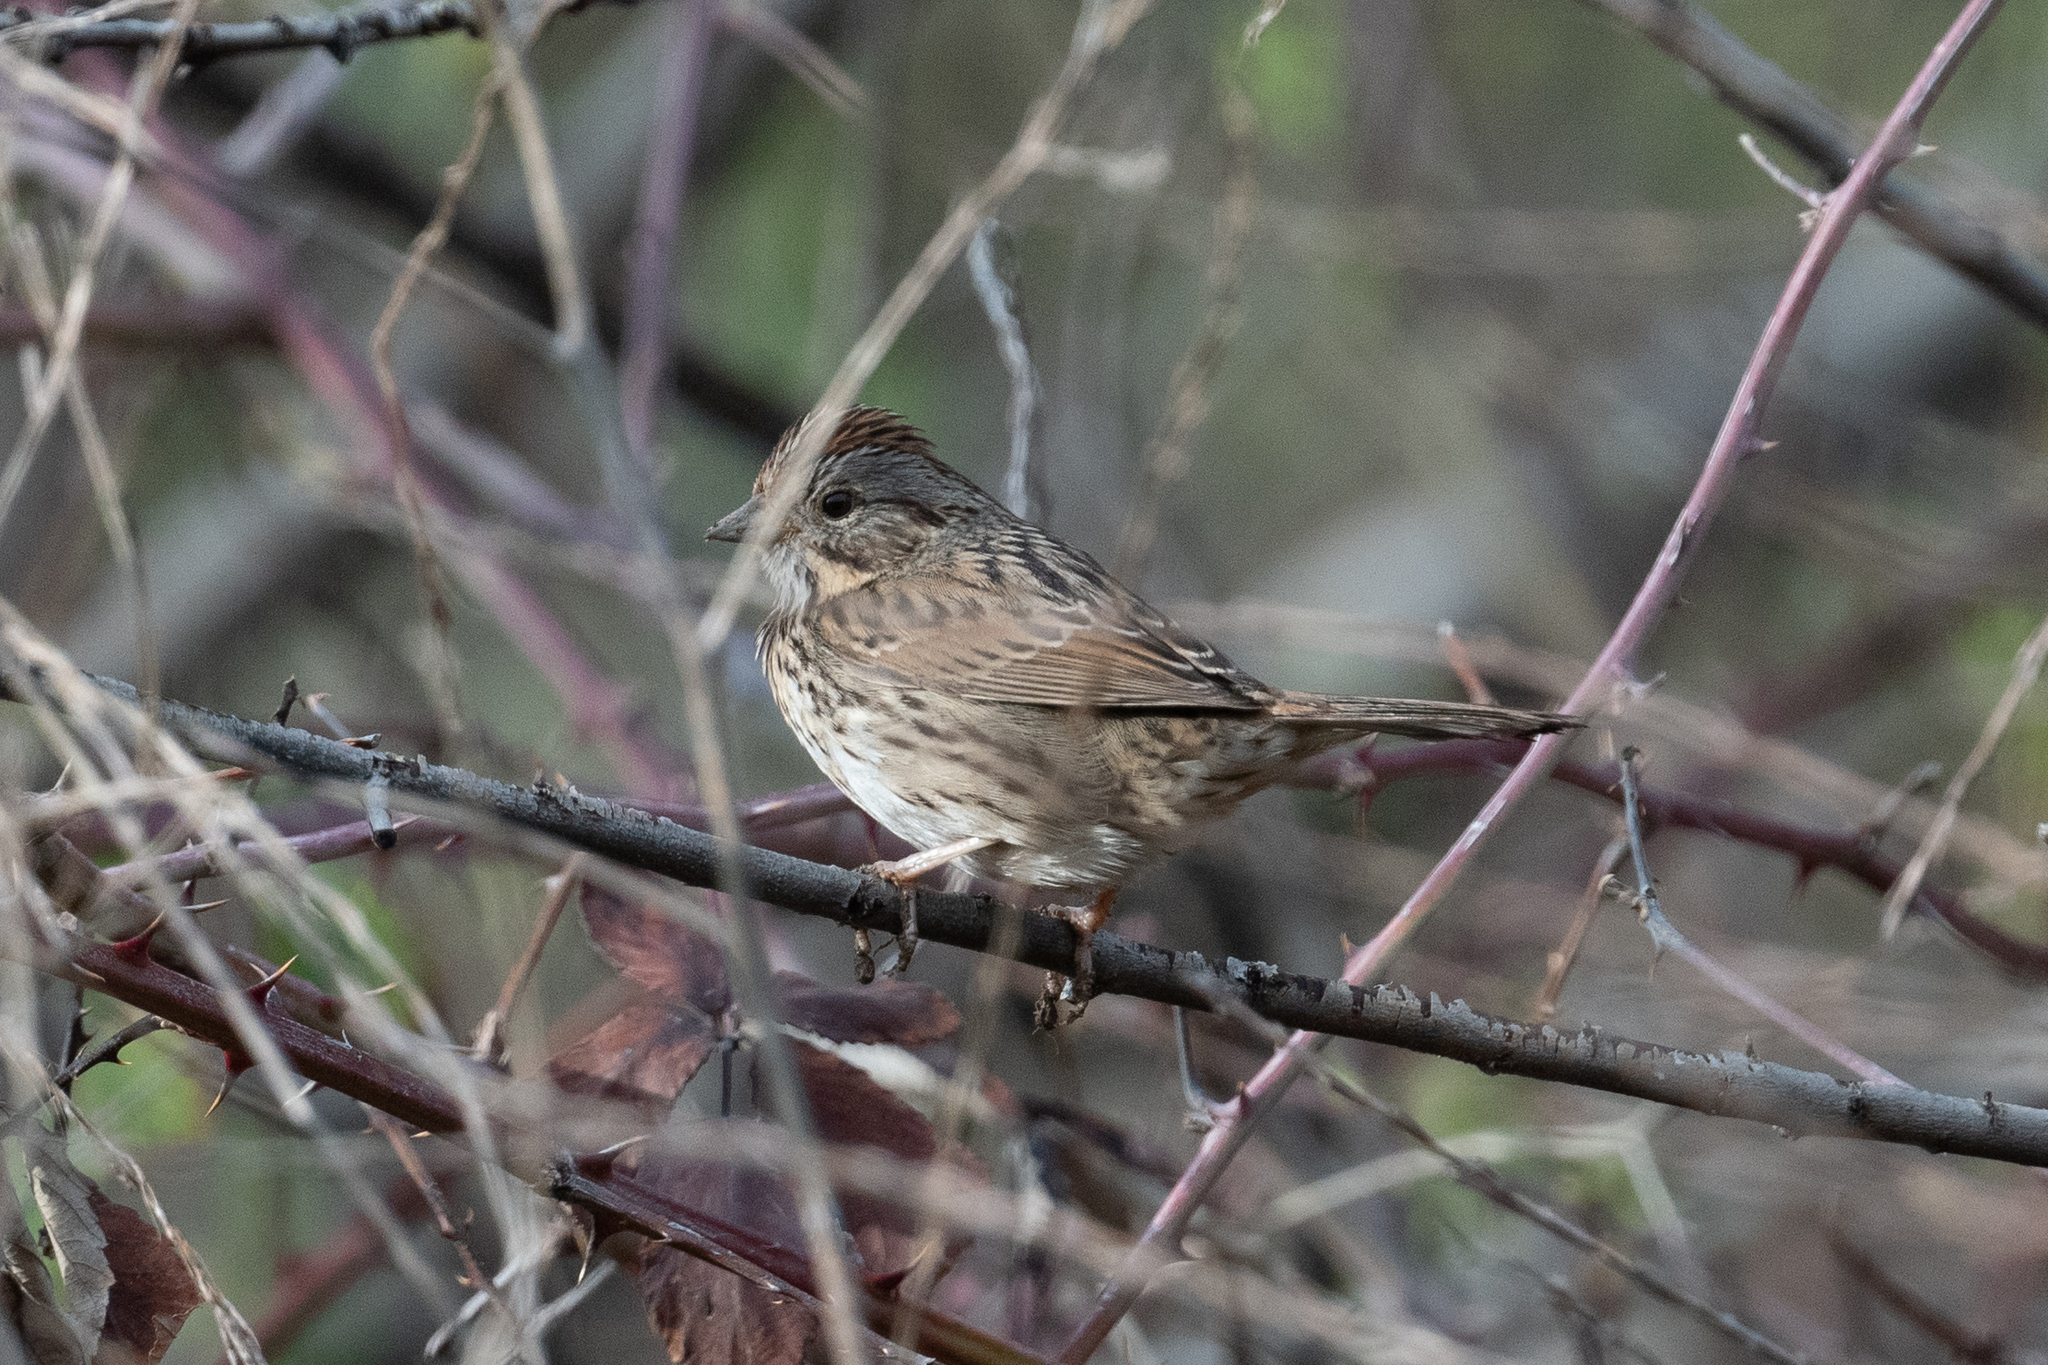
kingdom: Animalia
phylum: Chordata
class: Aves
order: Passeriformes
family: Passerellidae
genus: Melospiza
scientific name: Melospiza lincolnii
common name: Lincoln's sparrow
